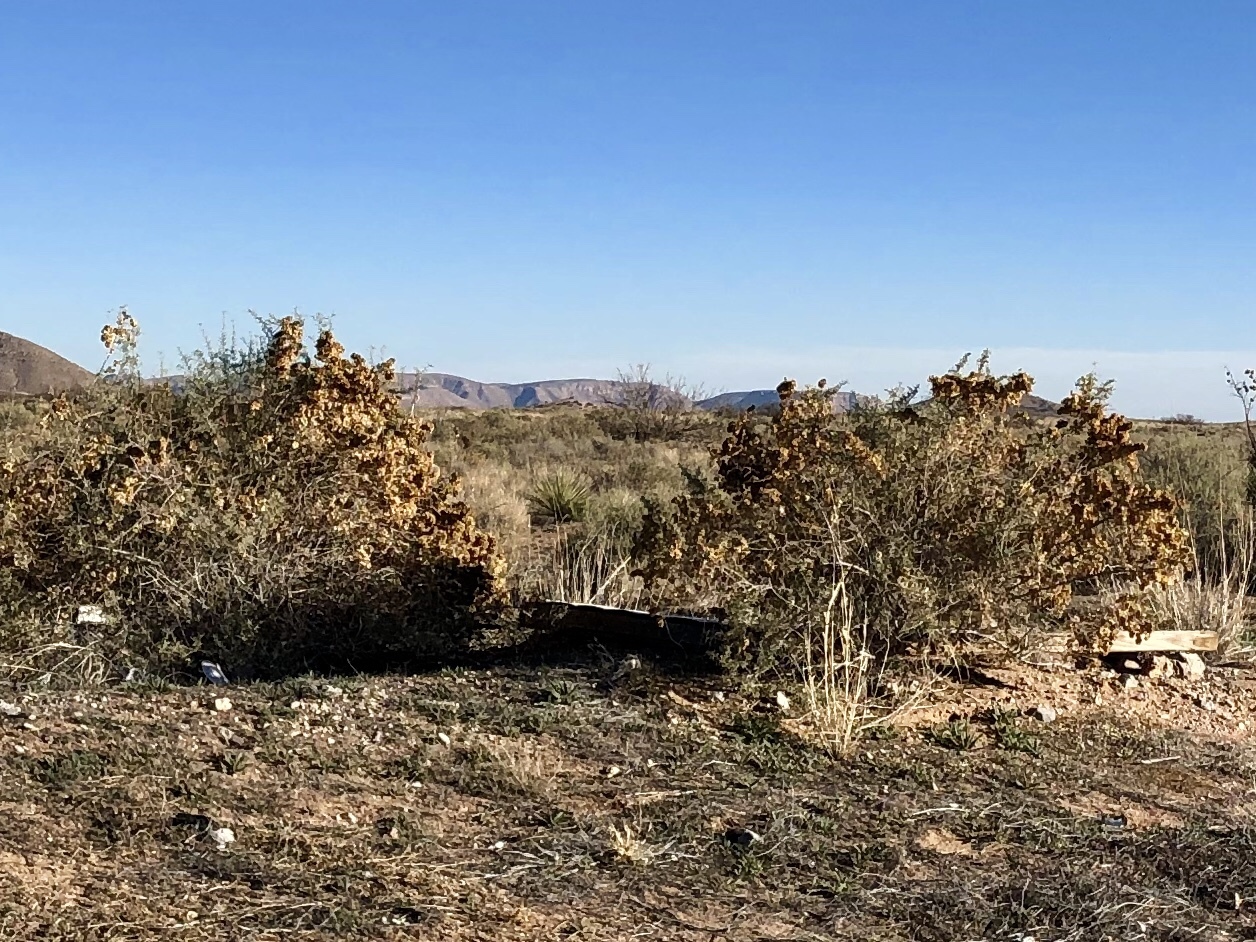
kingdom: Plantae
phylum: Tracheophyta
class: Magnoliopsida
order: Caryophyllales
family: Amaranthaceae
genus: Atriplex
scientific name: Atriplex canescens
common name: Four-wing saltbush
